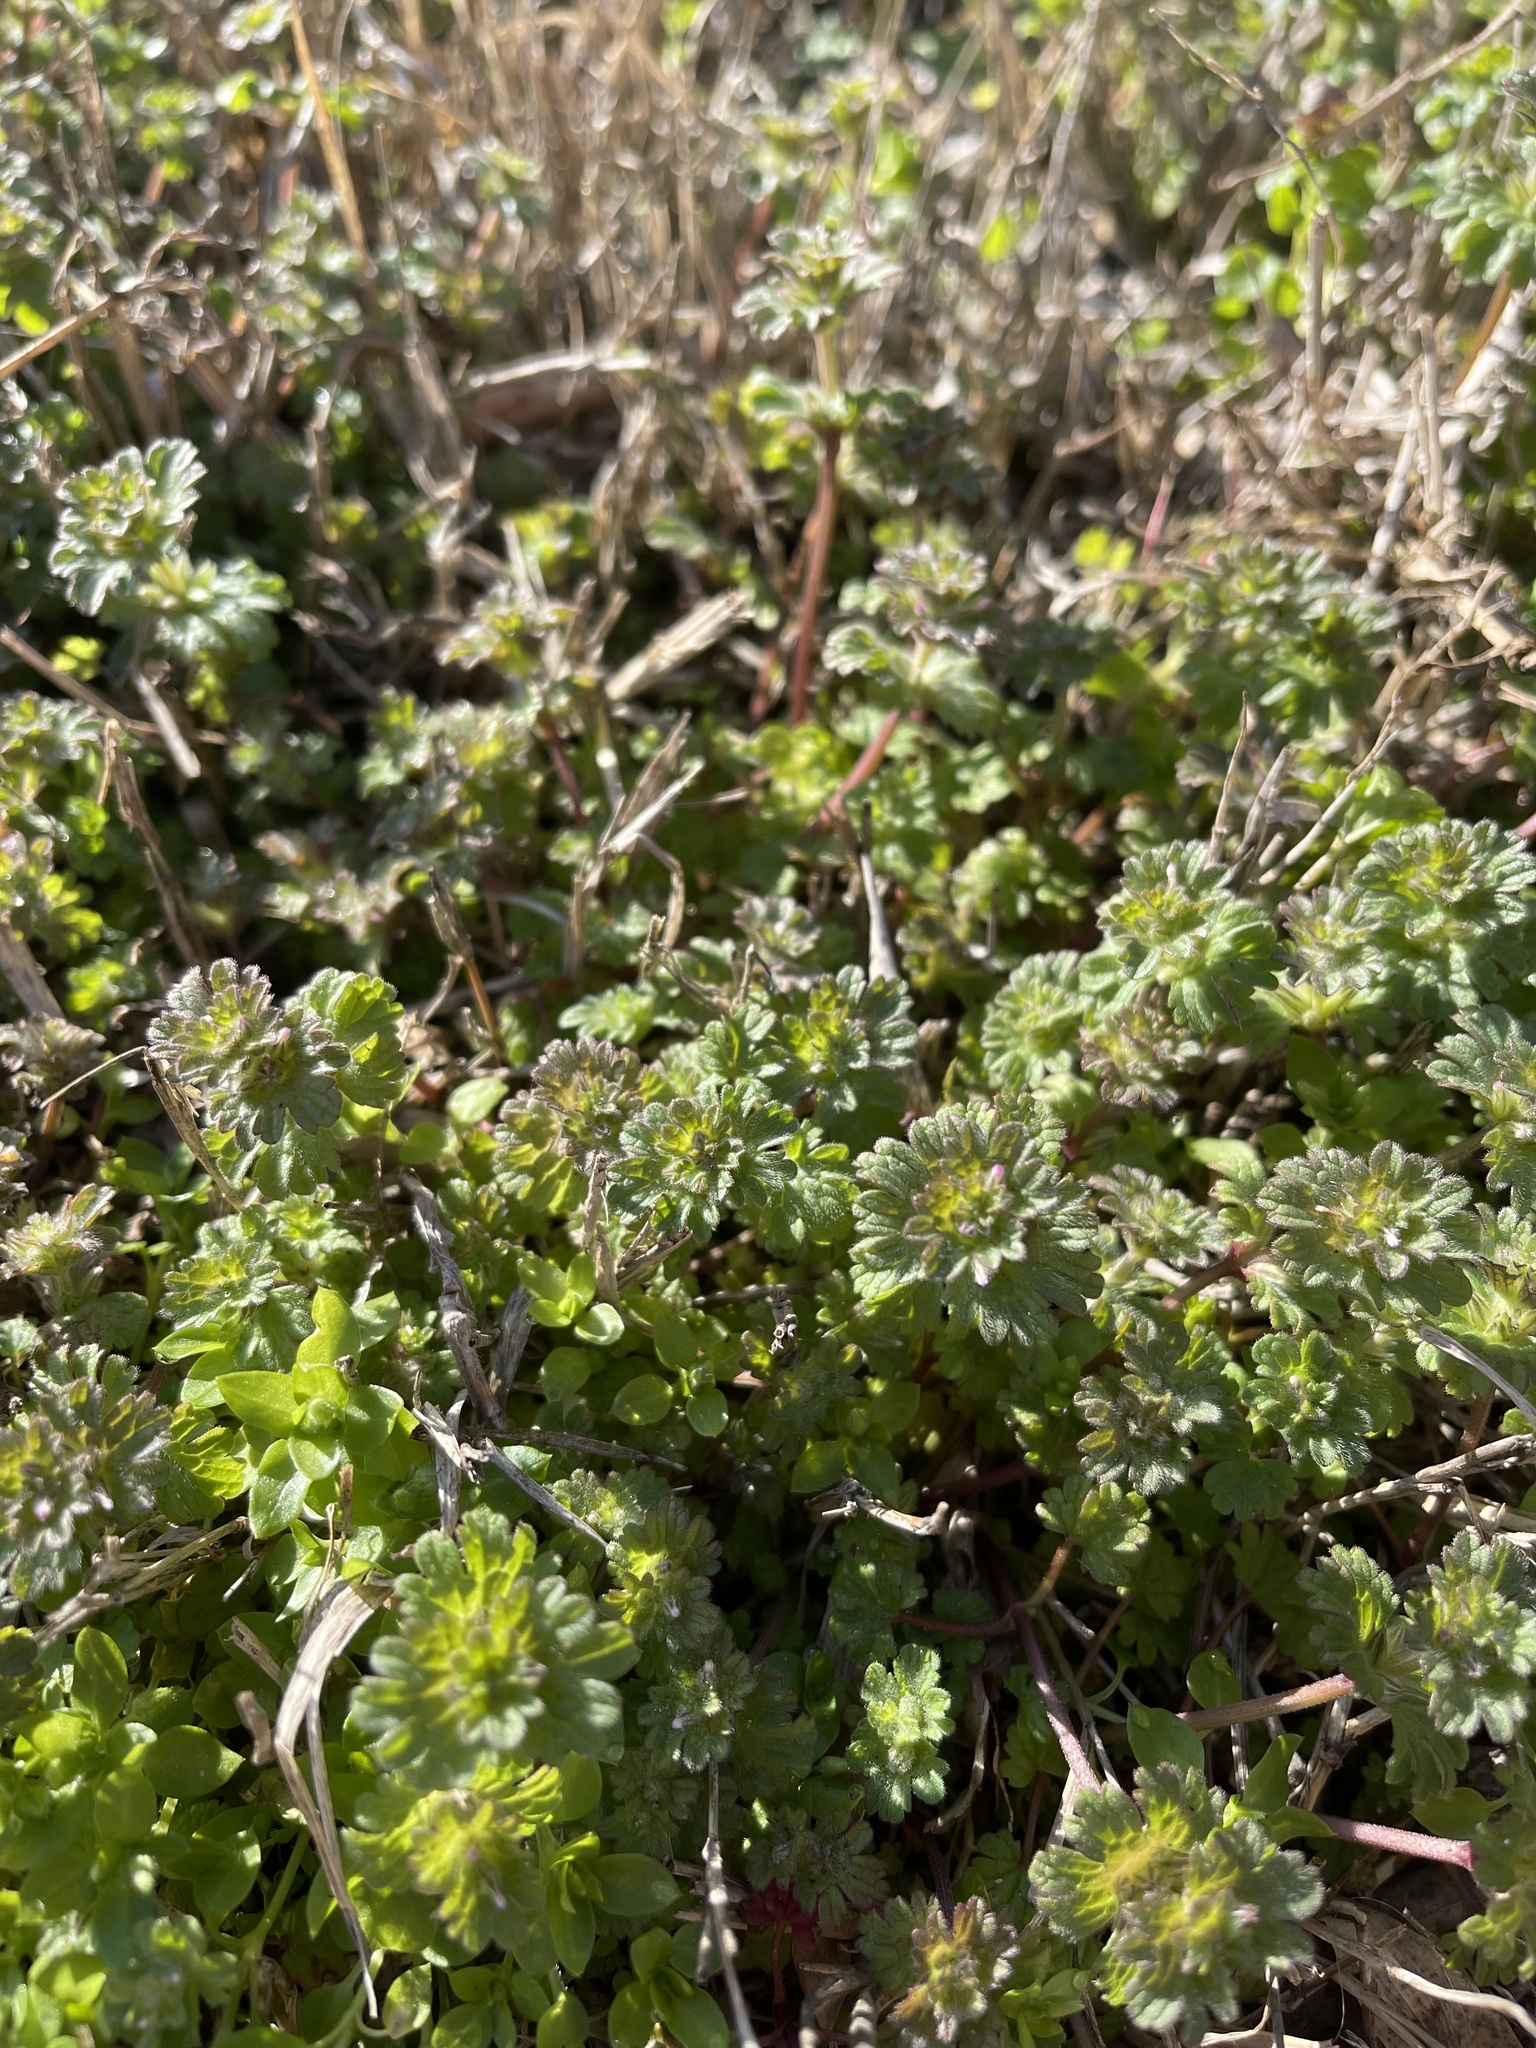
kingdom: Plantae
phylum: Tracheophyta
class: Magnoliopsida
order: Lamiales
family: Lamiaceae
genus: Lamium
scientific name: Lamium amplexicaule
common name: Henbit dead-nettle
